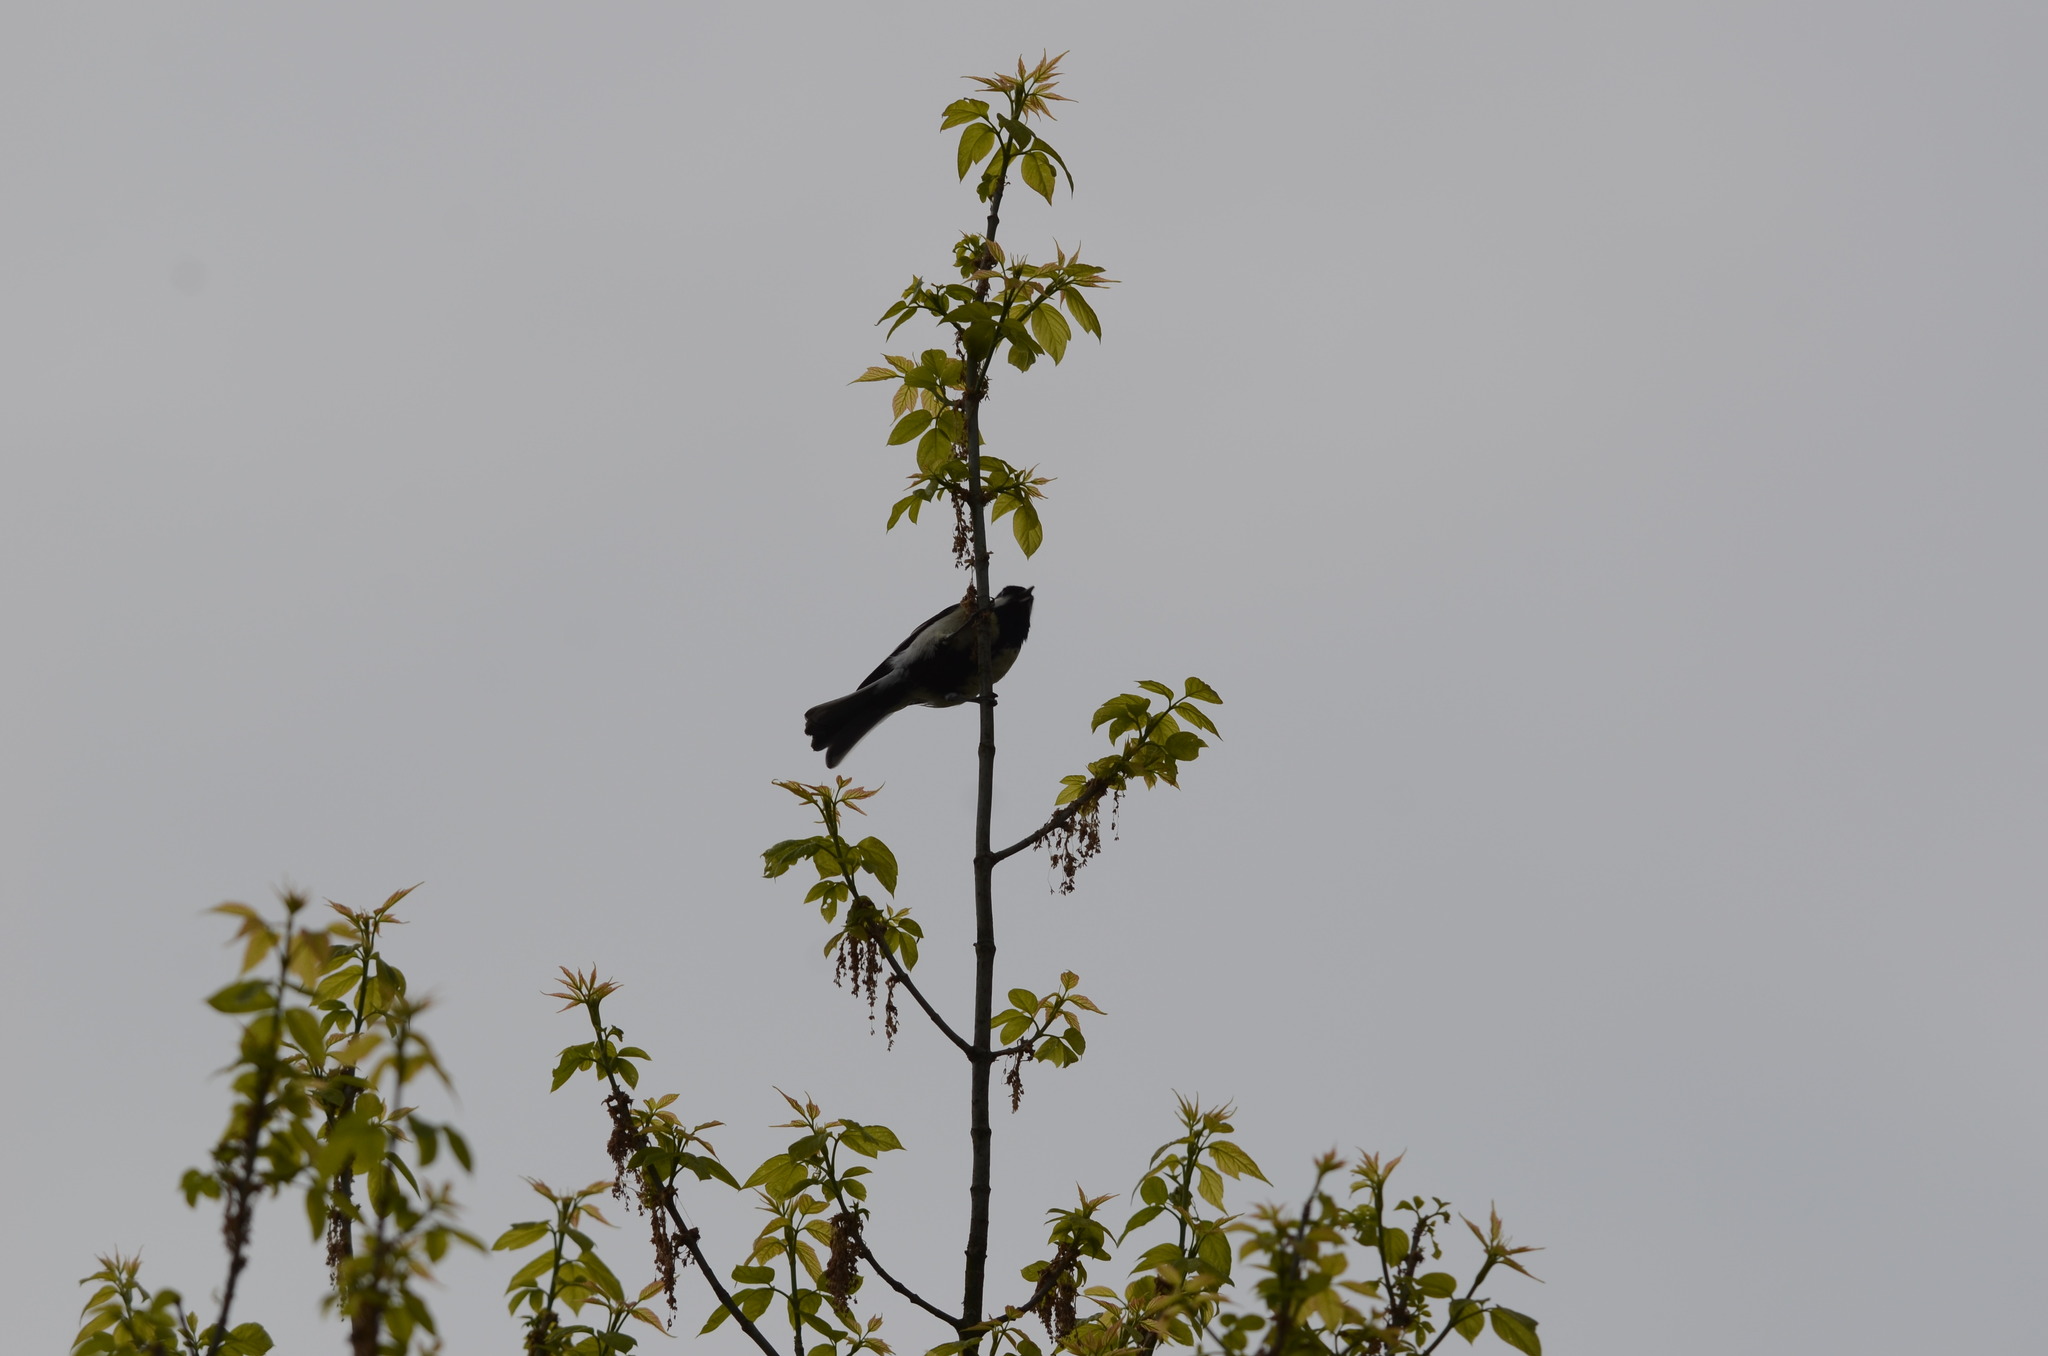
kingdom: Animalia
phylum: Chordata
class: Aves
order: Passeriformes
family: Paridae
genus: Parus
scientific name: Parus major
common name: Great tit
